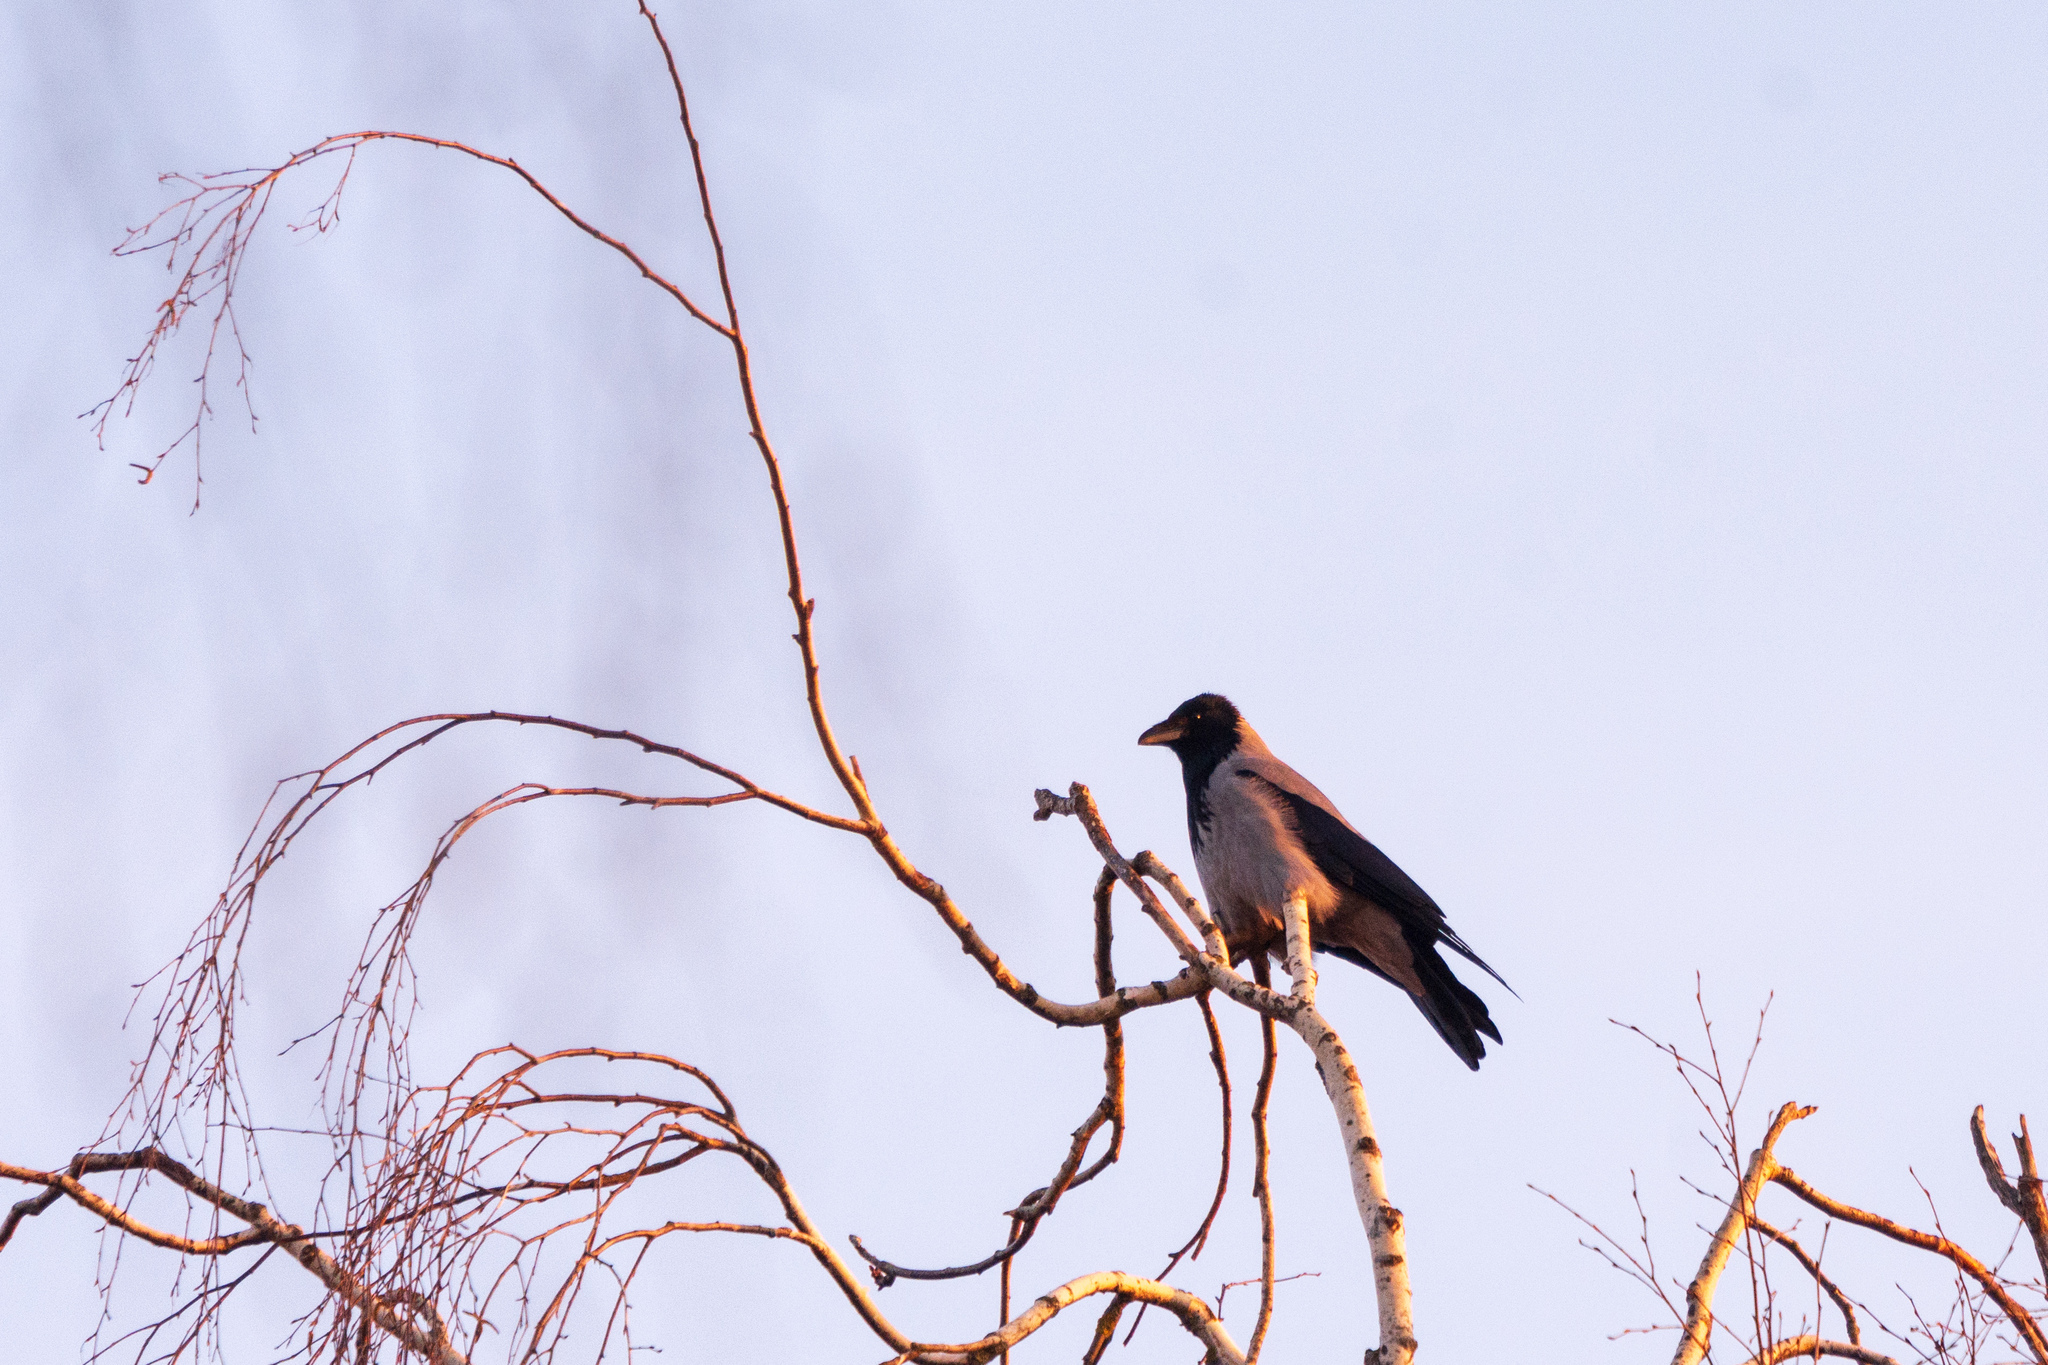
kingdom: Animalia
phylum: Chordata
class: Aves
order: Passeriformes
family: Corvidae
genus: Corvus
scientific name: Corvus cornix
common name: Hooded crow
